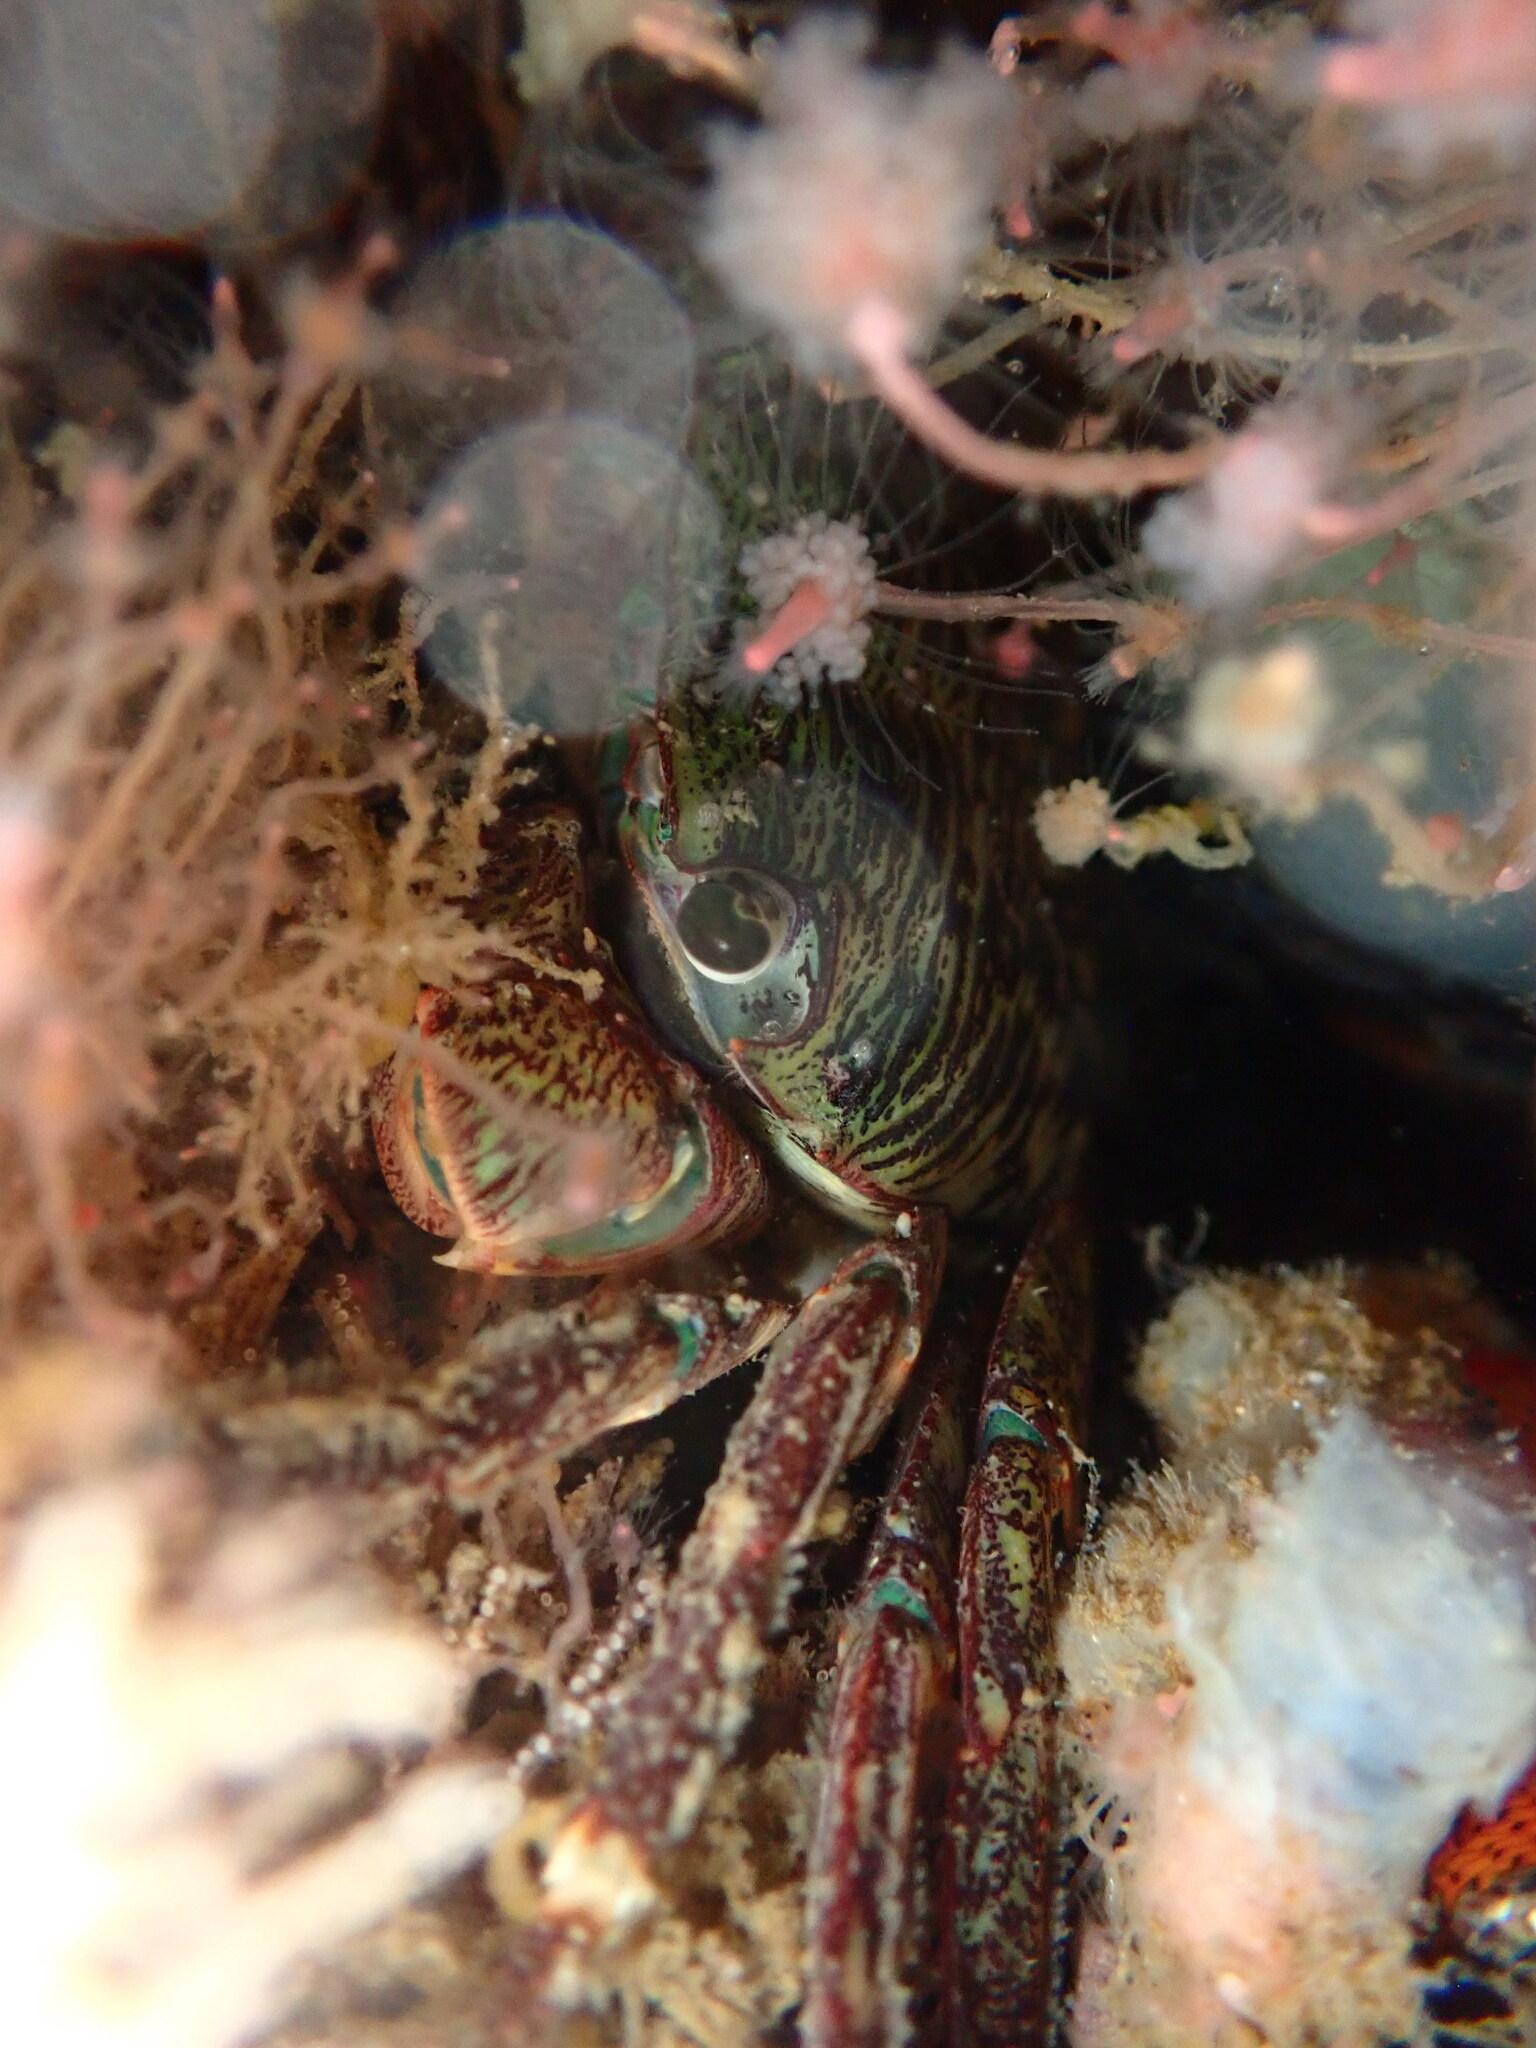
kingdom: Animalia
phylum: Arthropoda
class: Malacostraca
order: Decapoda
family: Grapsidae
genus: Pachygrapsus
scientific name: Pachygrapsus crassipes
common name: Striped shore crab
